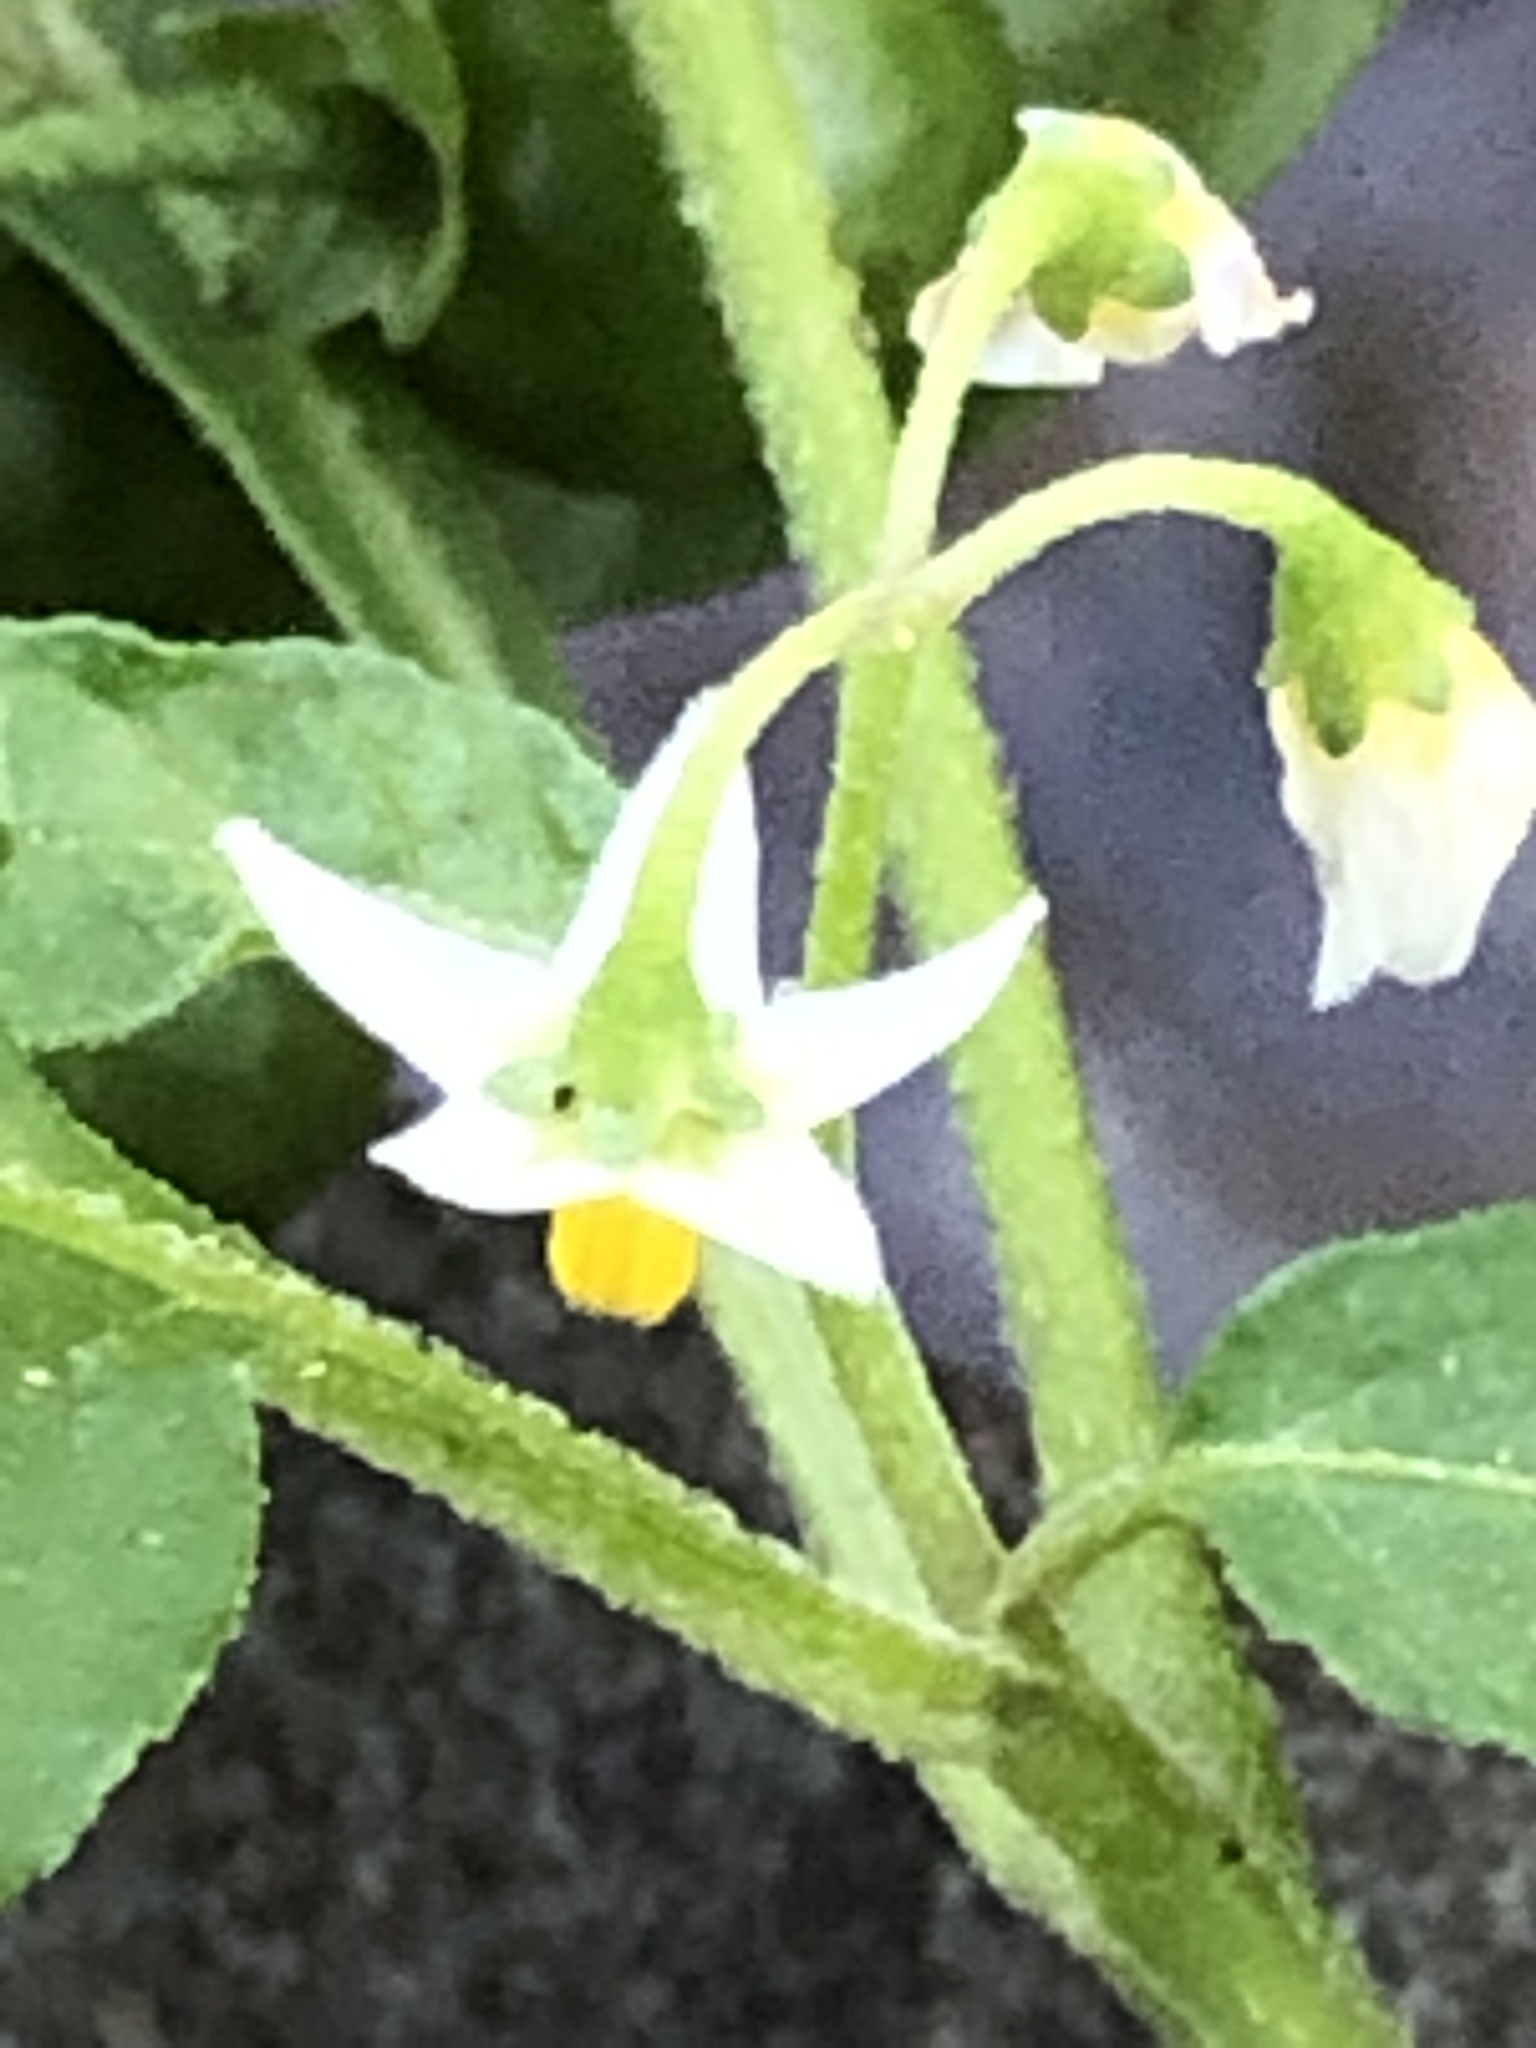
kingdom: Plantae
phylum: Tracheophyta
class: Magnoliopsida
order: Solanales
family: Solanaceae
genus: Solanum
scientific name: Solanum emulans
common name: Eastern black nightshade
